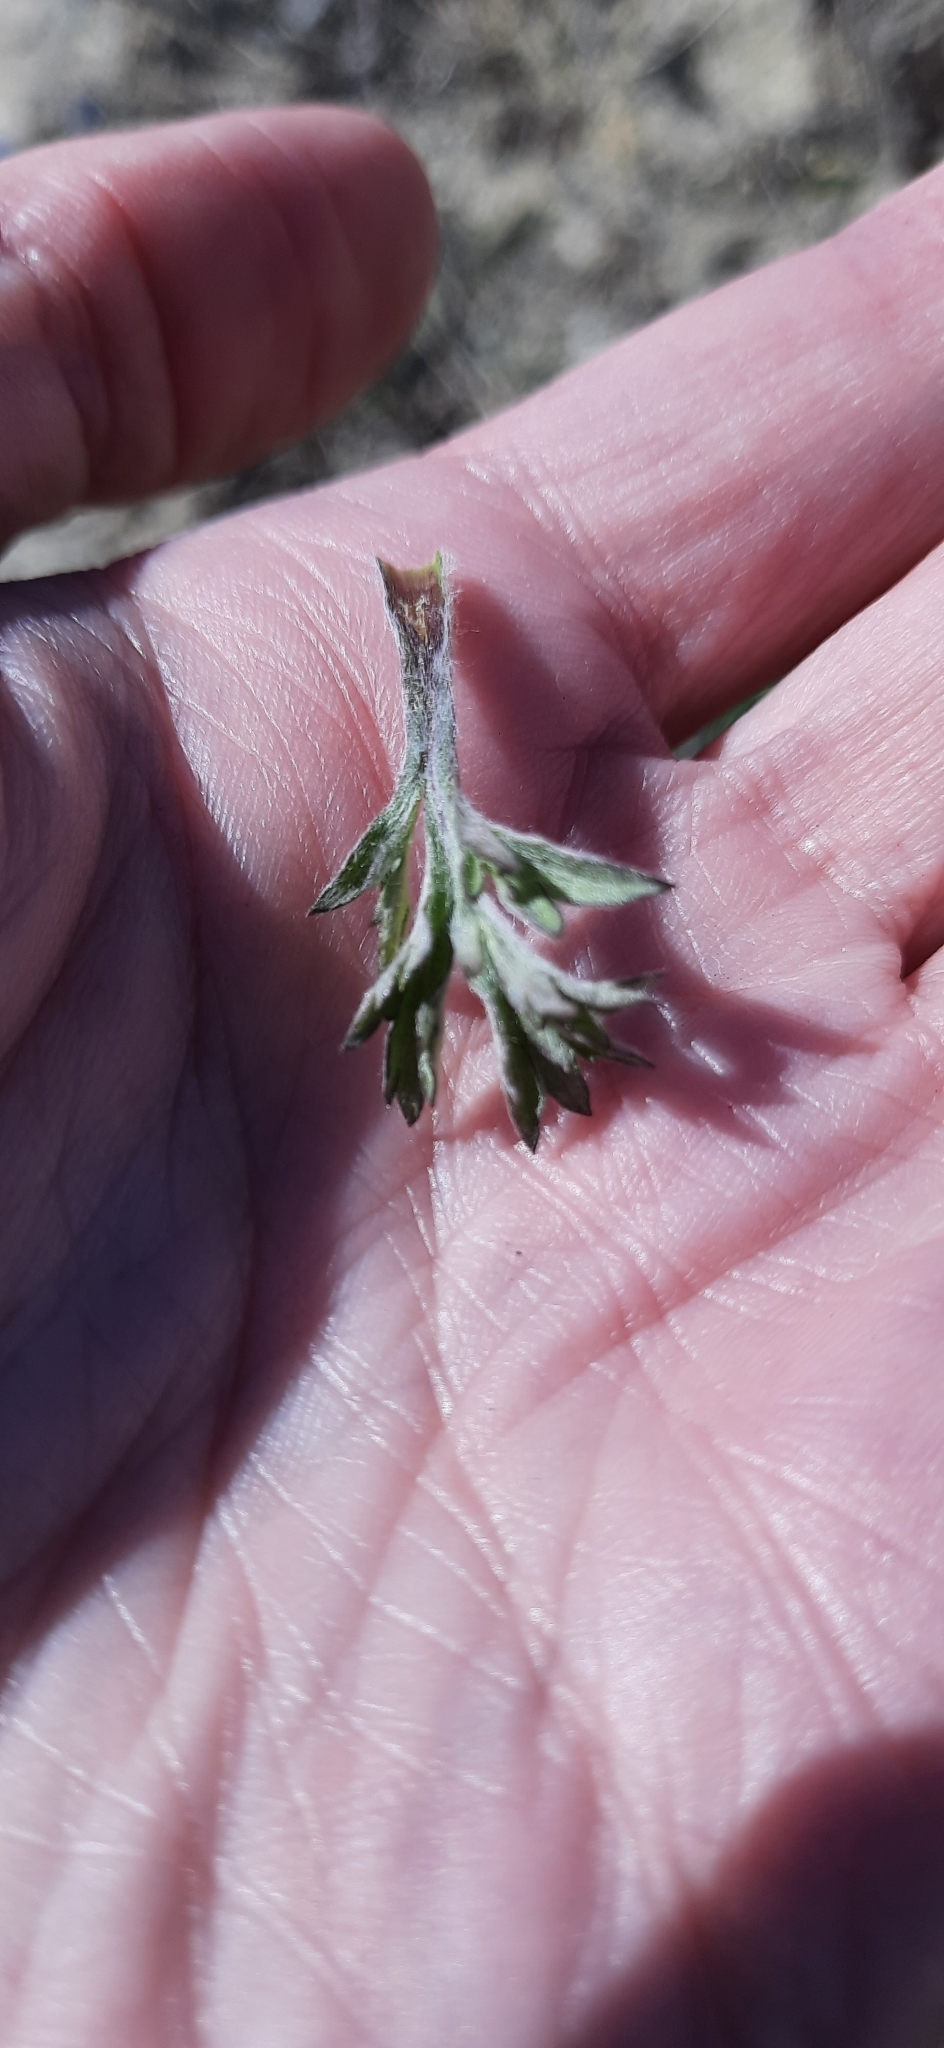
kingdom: Plantae
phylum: Tracheophyta
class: Magnoliopsida
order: Asterales
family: Asteraceae
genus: Artemisia
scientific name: Artemisia vulgaris
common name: Mugwort
